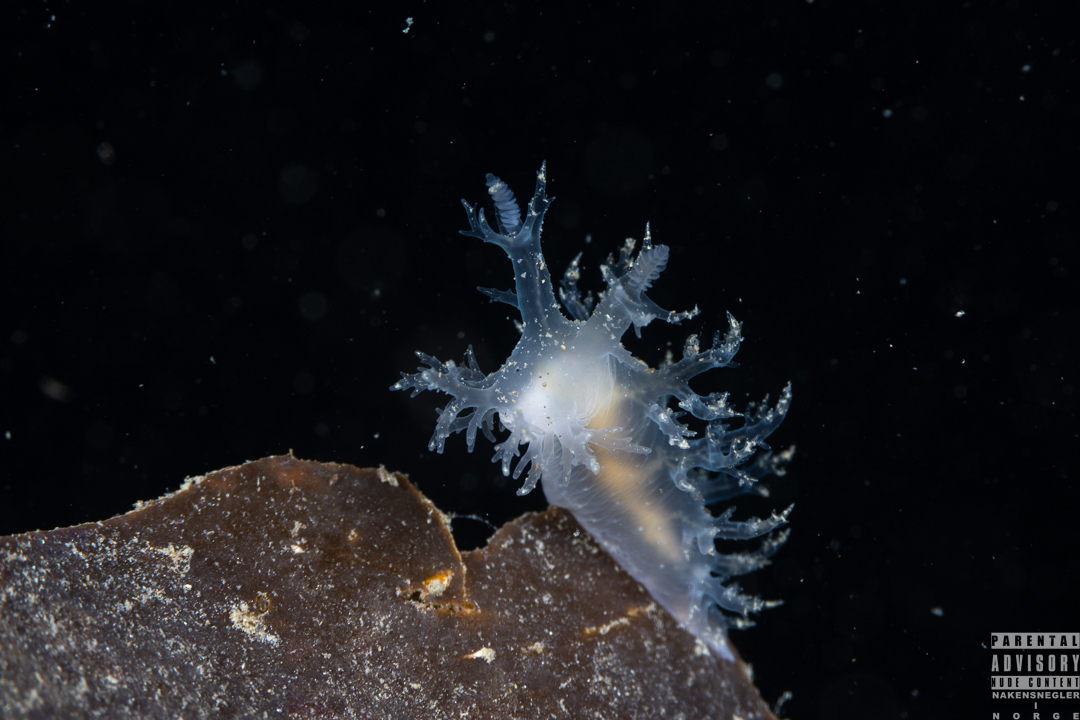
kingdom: Animalia
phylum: Mollusca
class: Gastropoda
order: Nudibranchia
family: Dendronotidae
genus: Dendronotus
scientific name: Dendronotus frondosus
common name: Bushy-backed nudibranch
